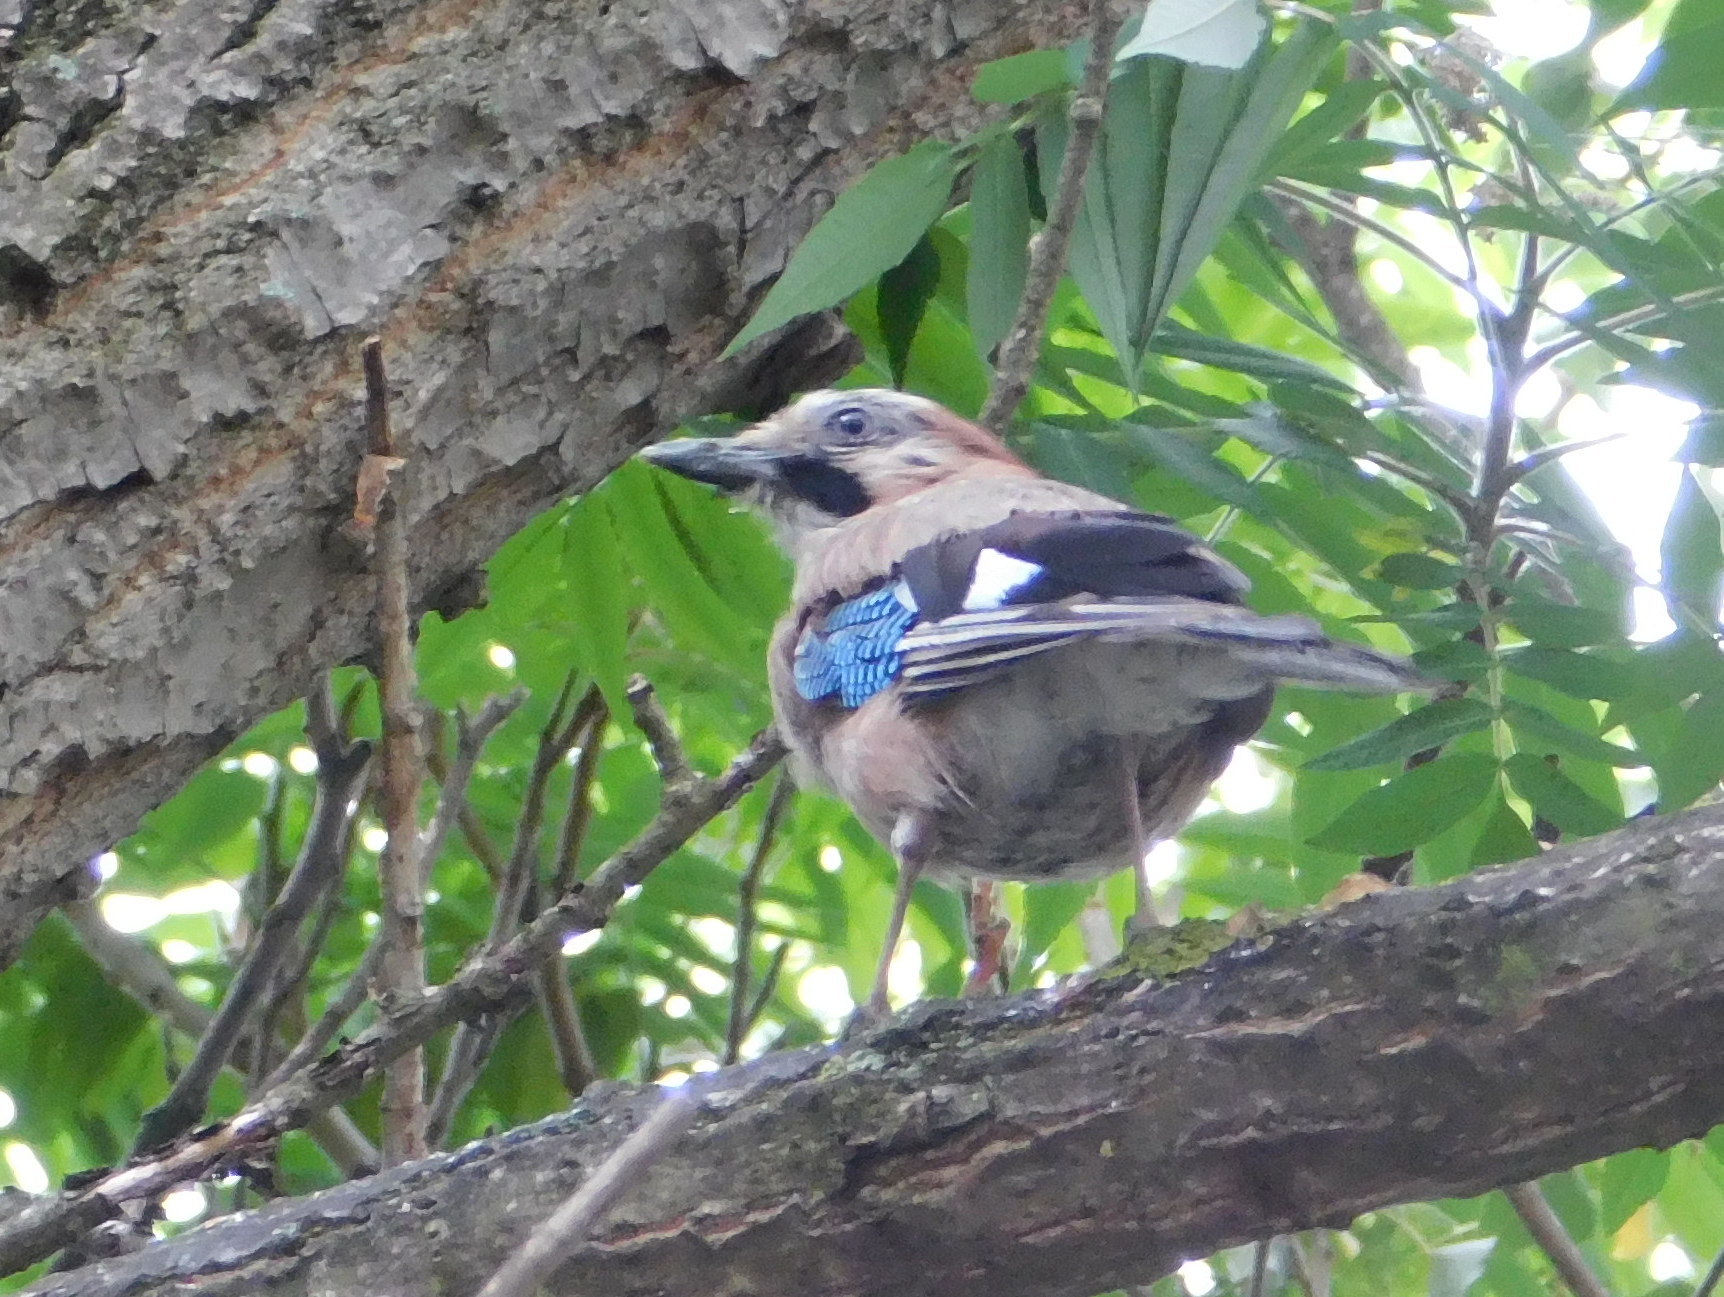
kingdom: Animalia
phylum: Chordata
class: Aves
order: Passeriformes
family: Corvidae
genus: Garrulus
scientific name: Garrulus glandarius
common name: Eurasian jay
